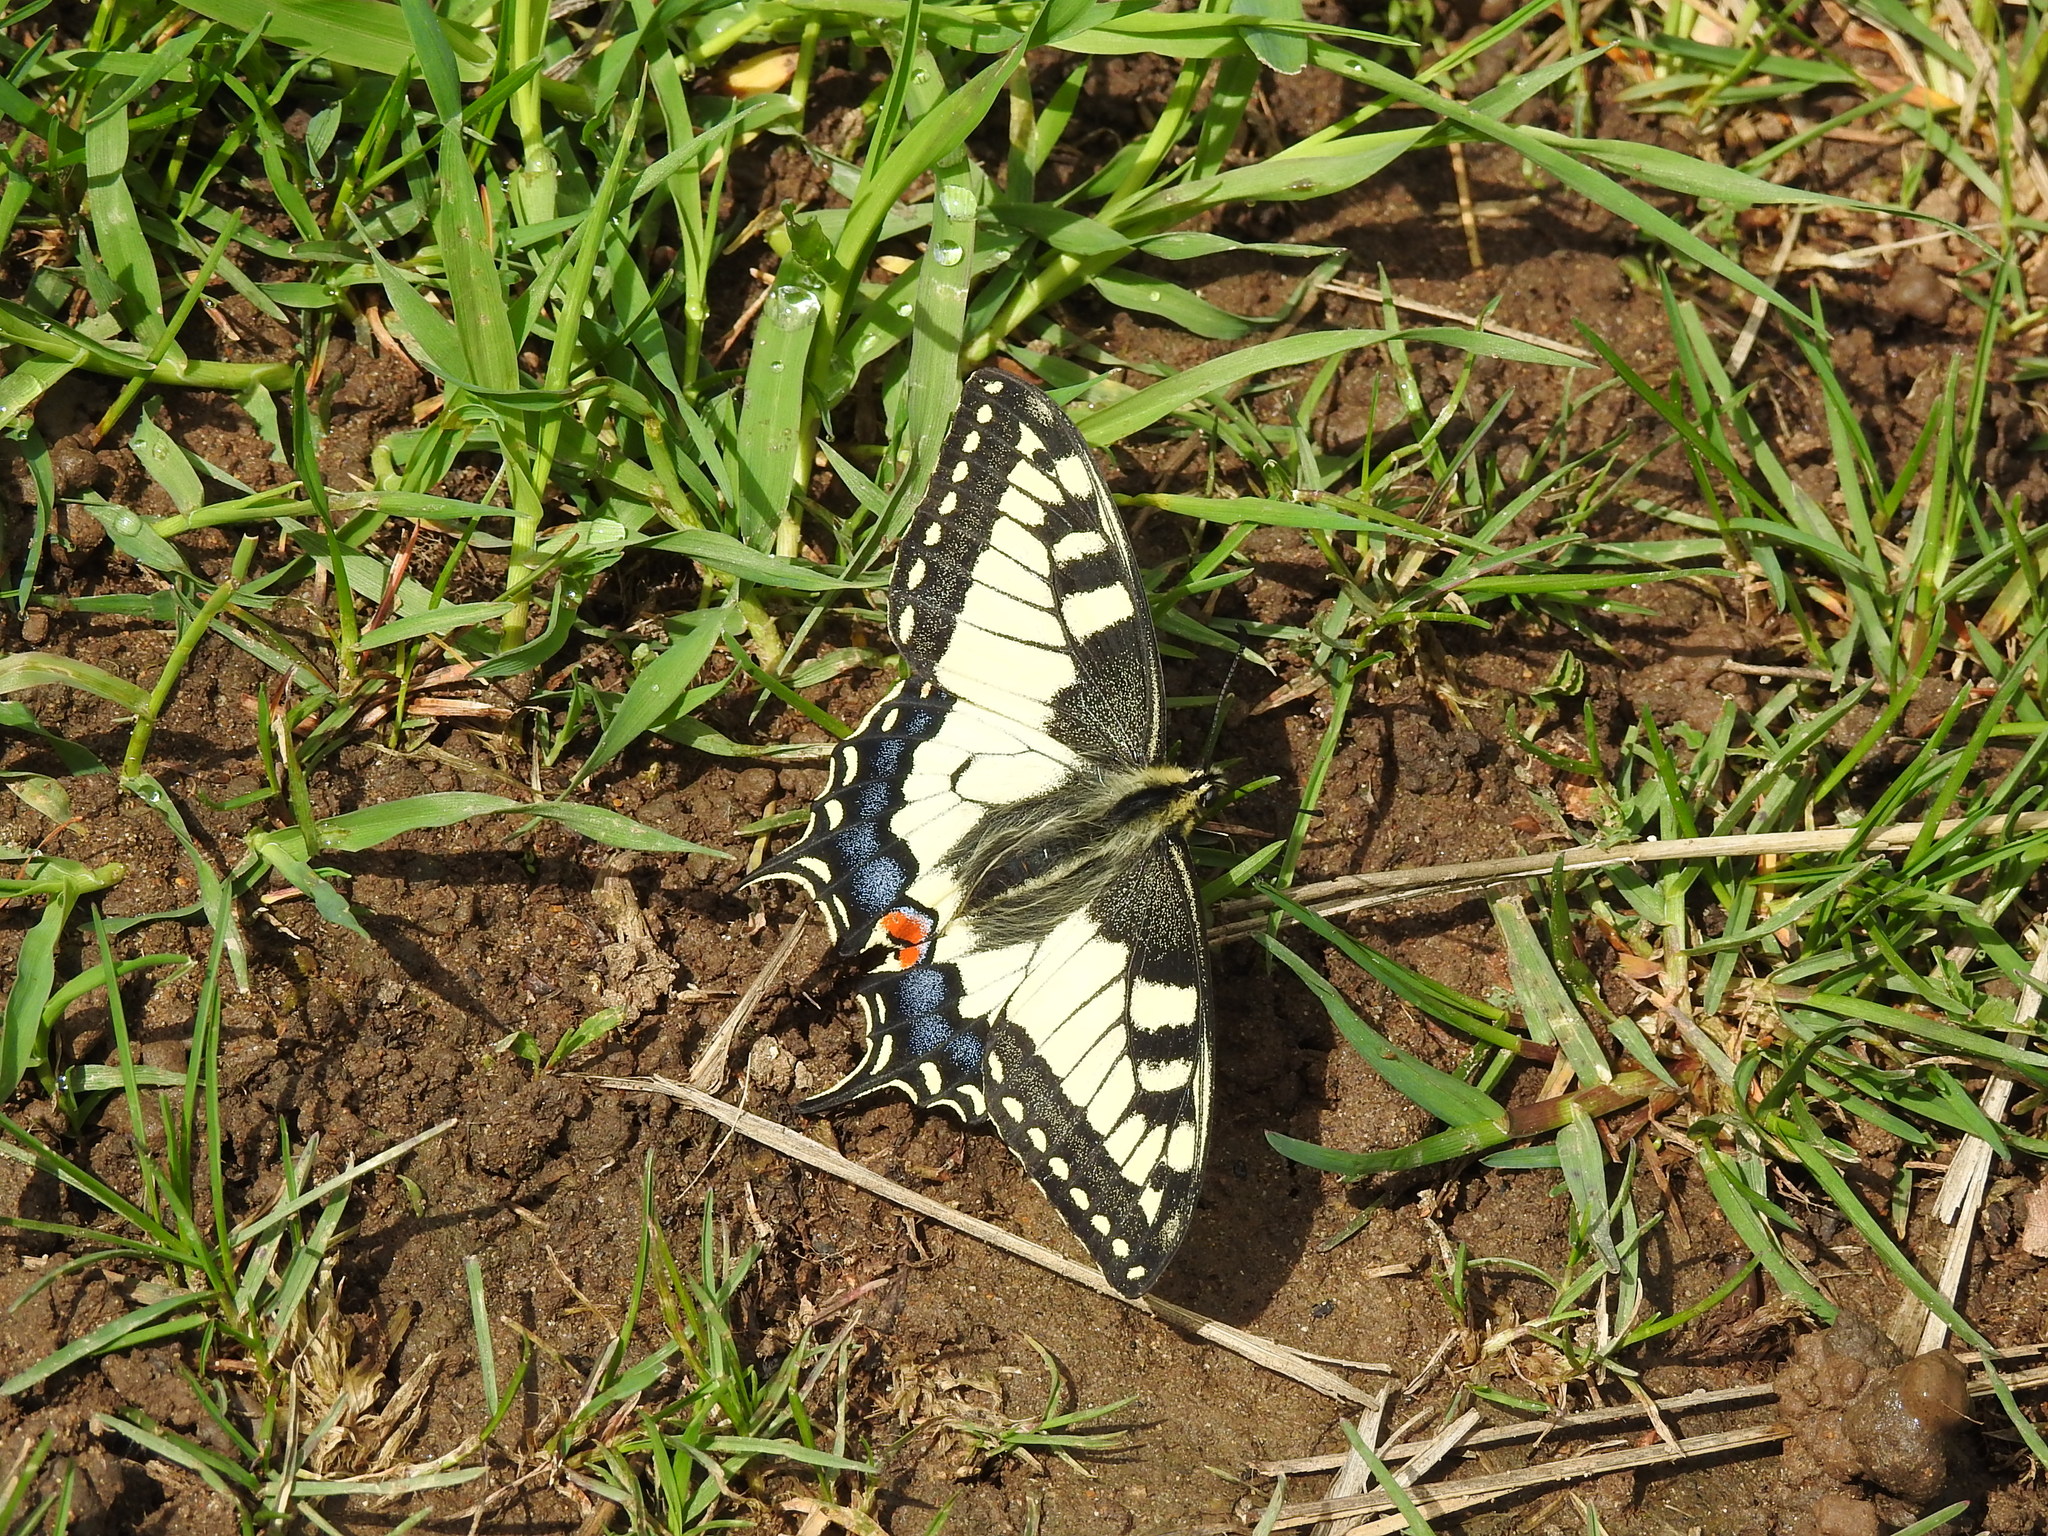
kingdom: Animalia
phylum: Arthropoda
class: Insecta
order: Lepidoptera
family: Papilionidae
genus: Papilio
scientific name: Papilio machaon
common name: Swallowtail
